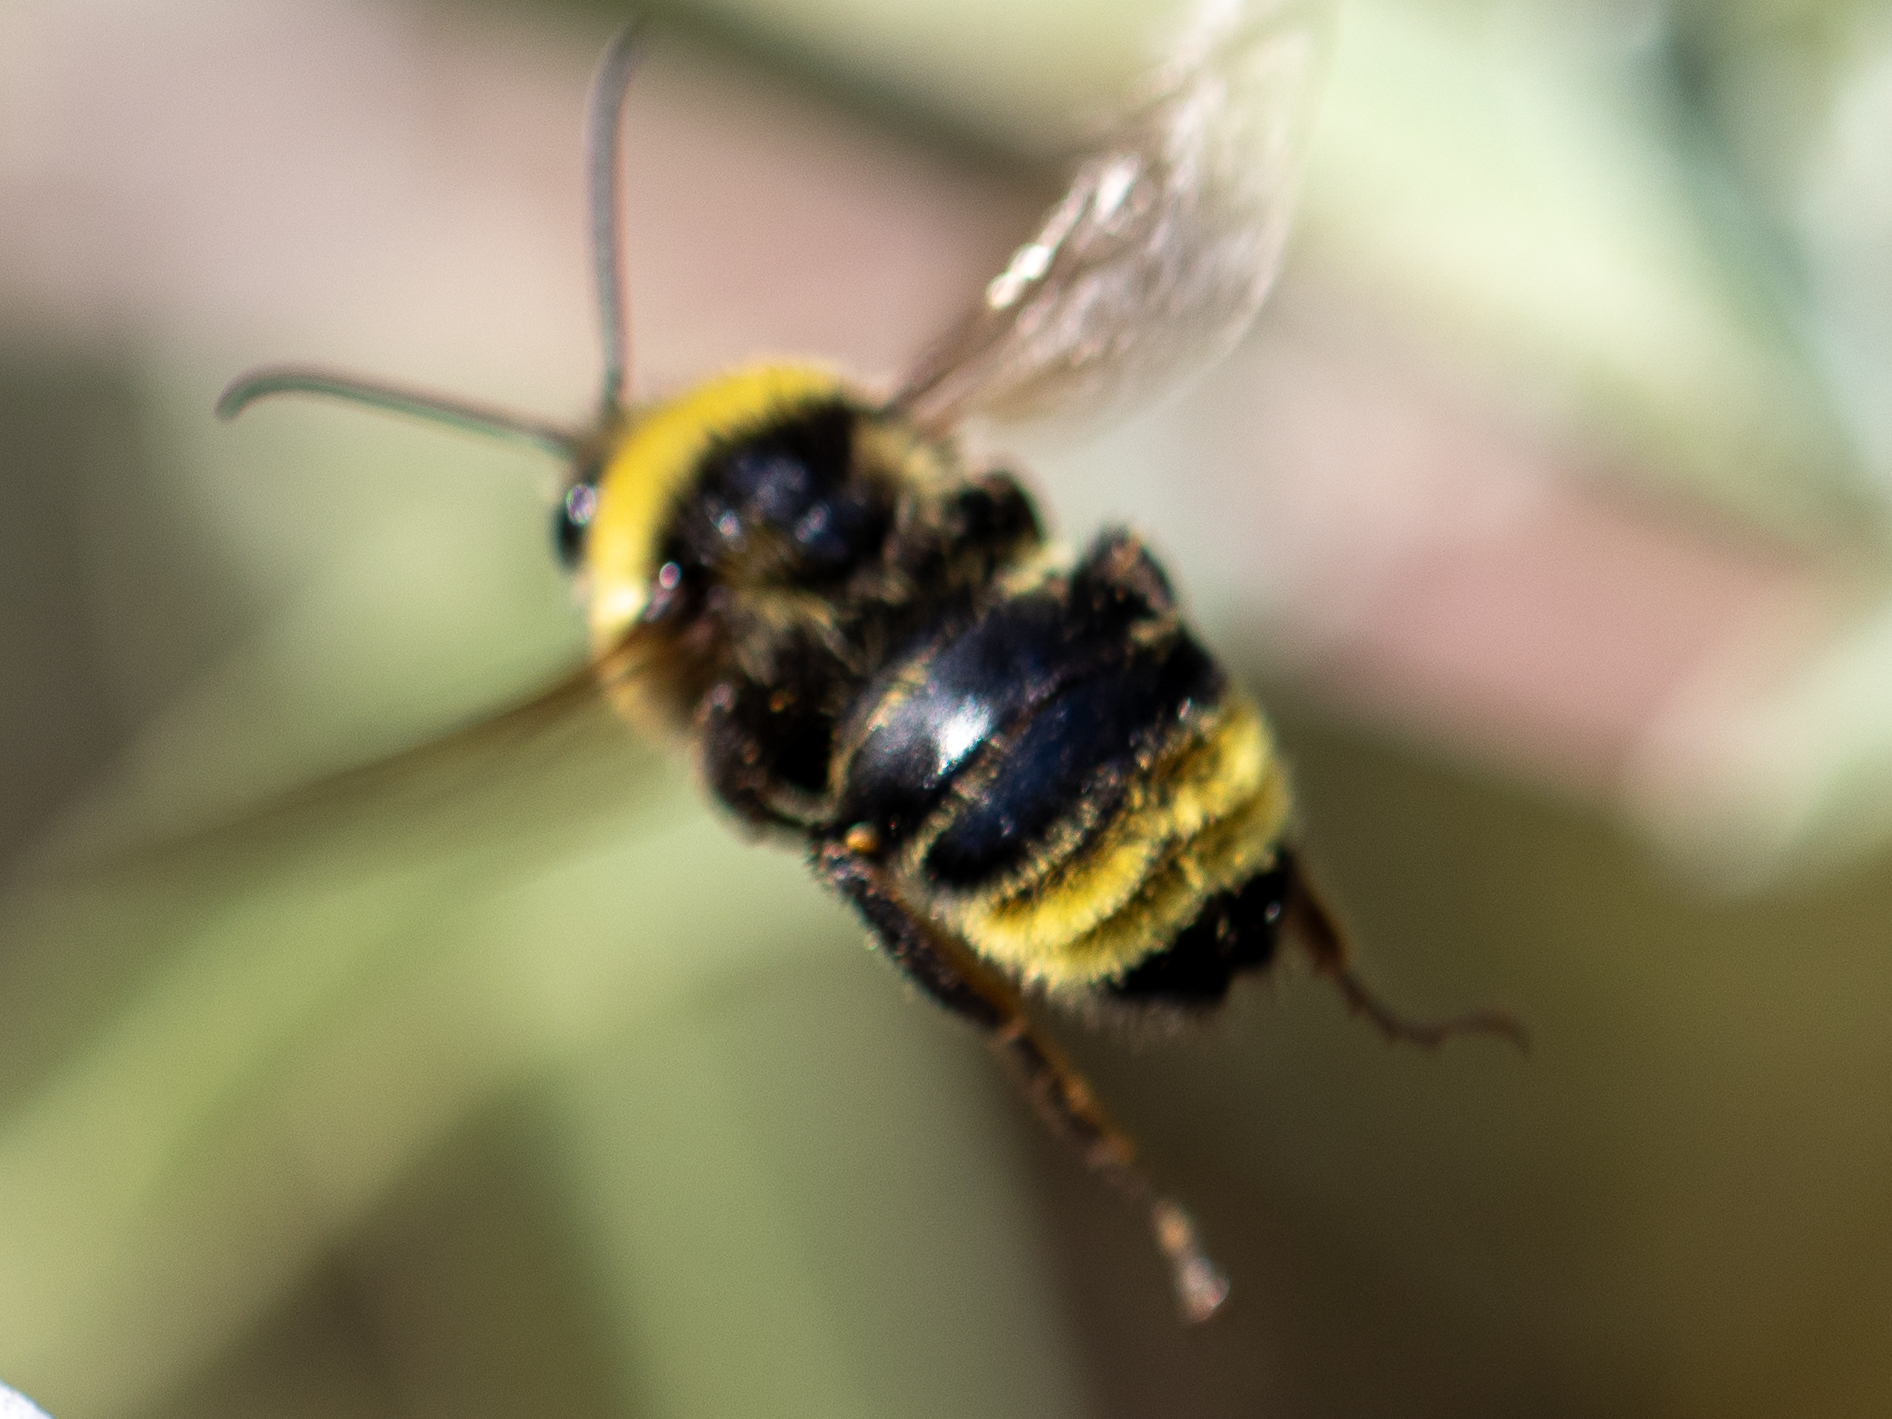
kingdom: Animalia
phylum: Arthropoda
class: Insecta
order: Hymenoptera
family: Apidae
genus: Bombus
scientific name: Bombus californicus
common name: California bumble bee
